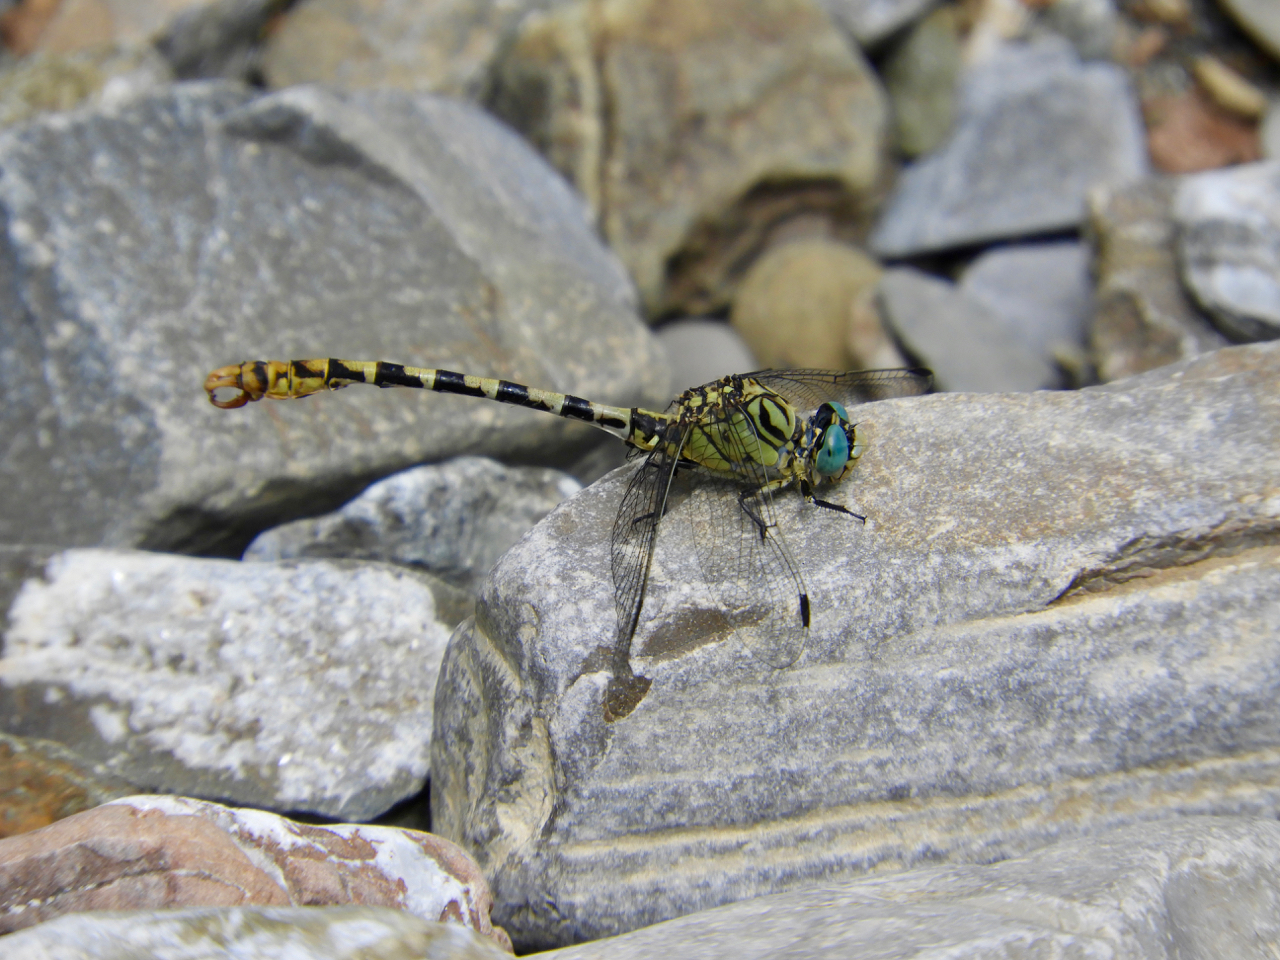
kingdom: Animalia
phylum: Arthropoda
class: Insecta
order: Odonata
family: Gomphidae
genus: Onychogomphus
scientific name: Onychogomphus forcipatus
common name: Small pincertail
